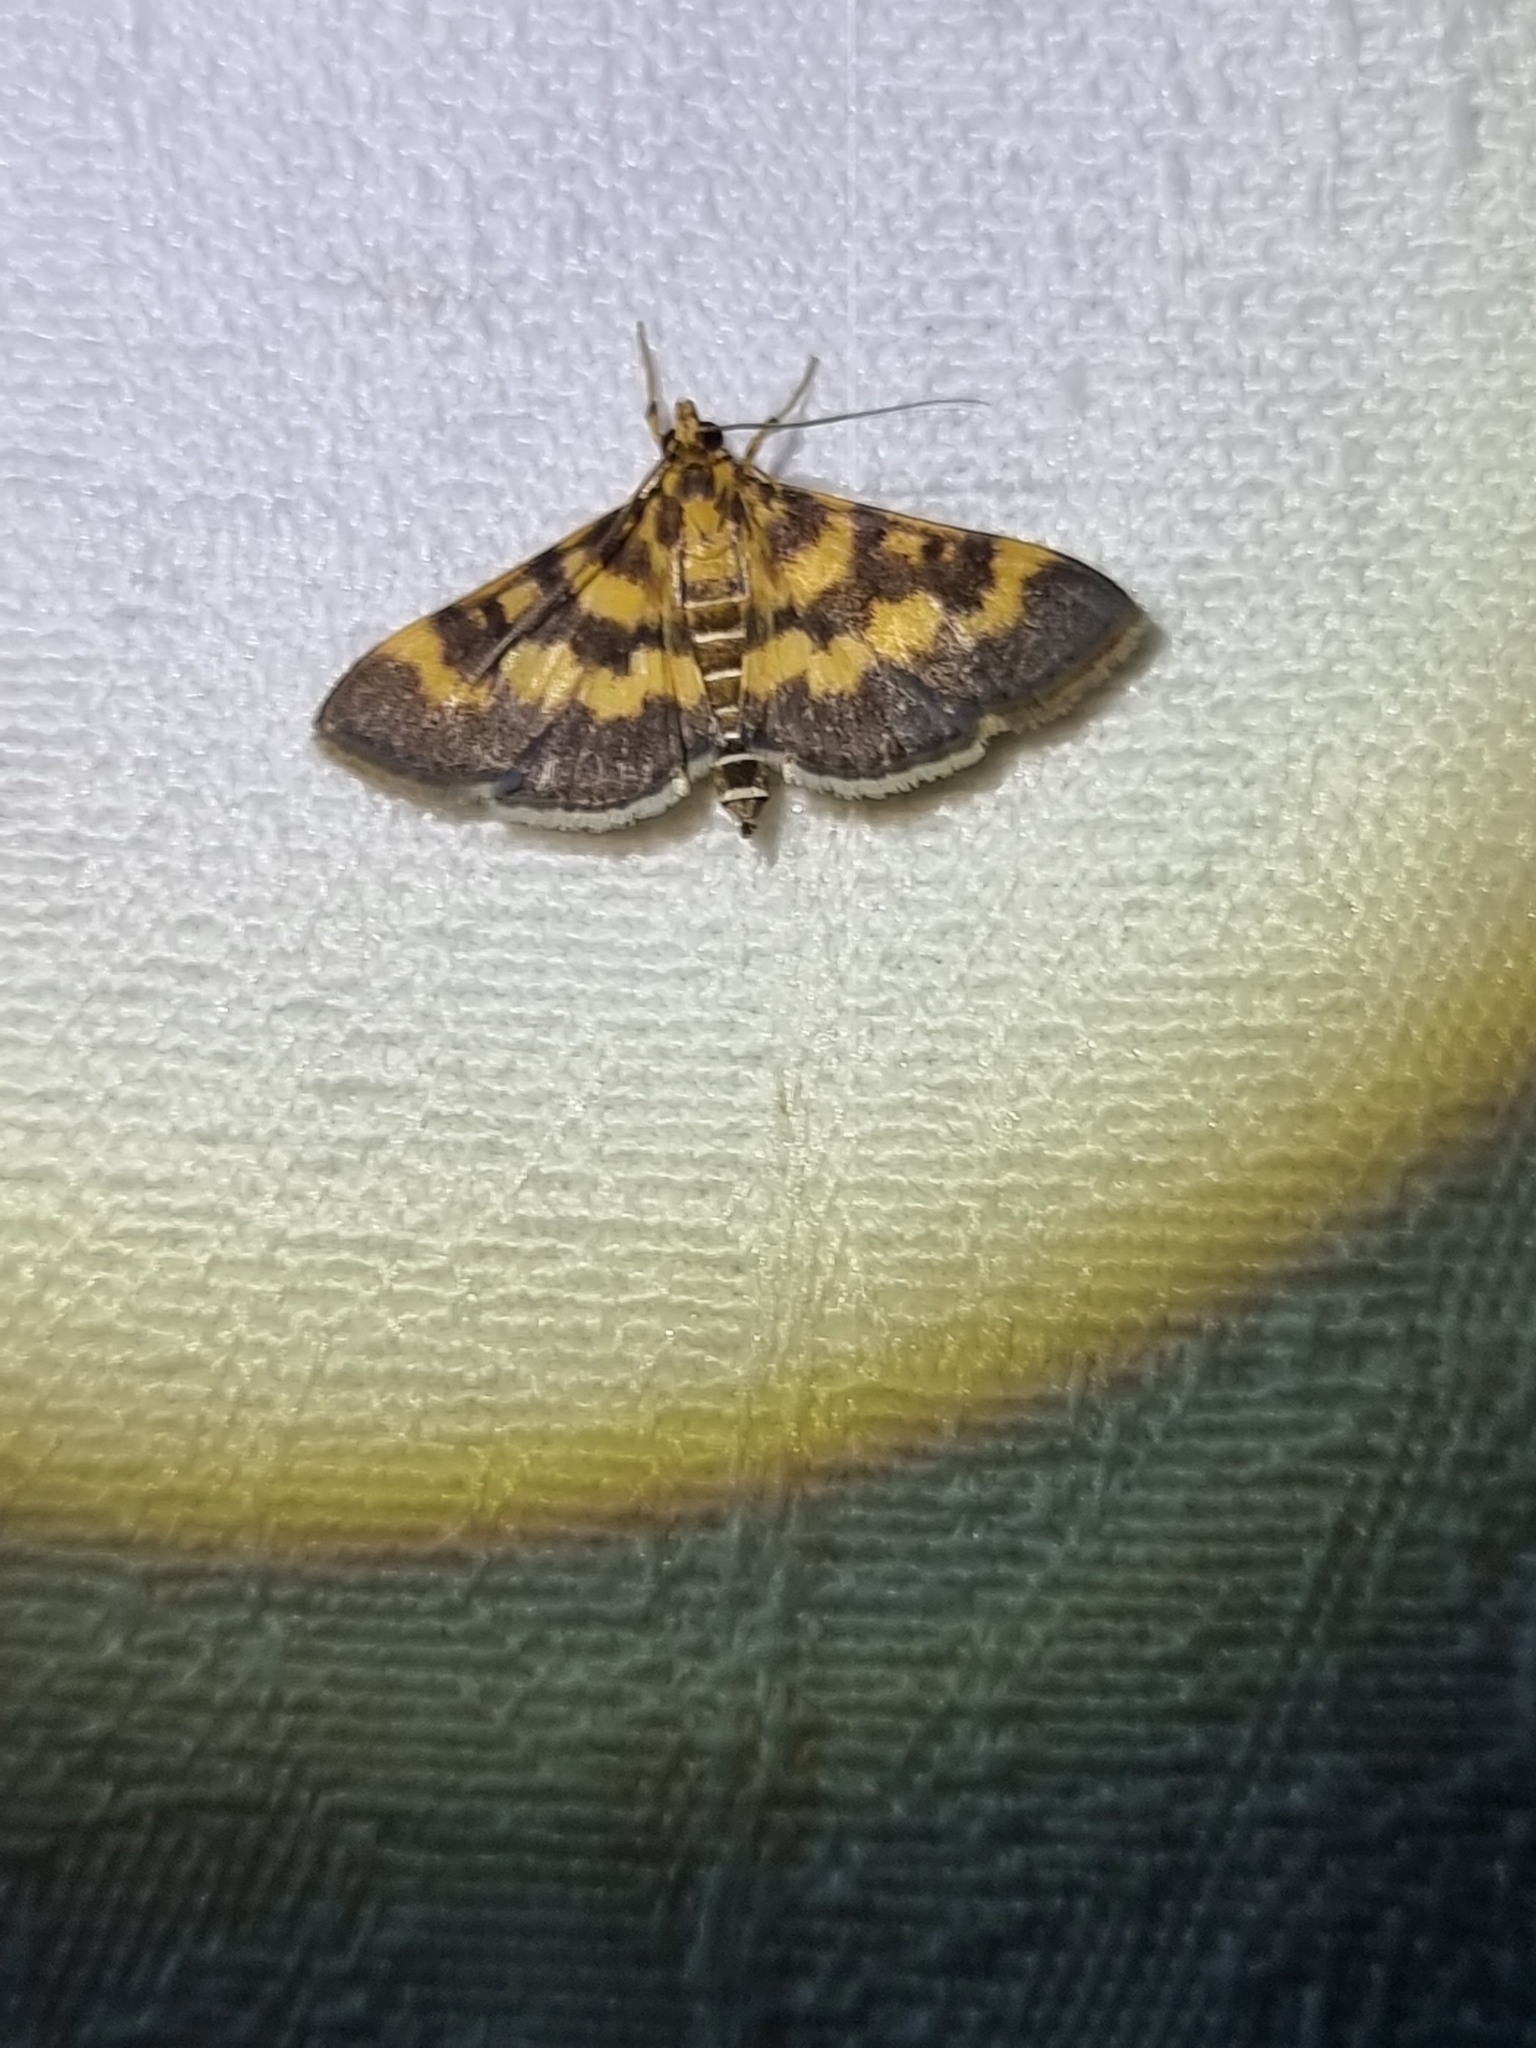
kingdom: Animalia
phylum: Arthropoda
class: Insecta
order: Lepidoptera
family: Crambidae
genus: Omiodes
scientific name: Omiodes diemenalis
